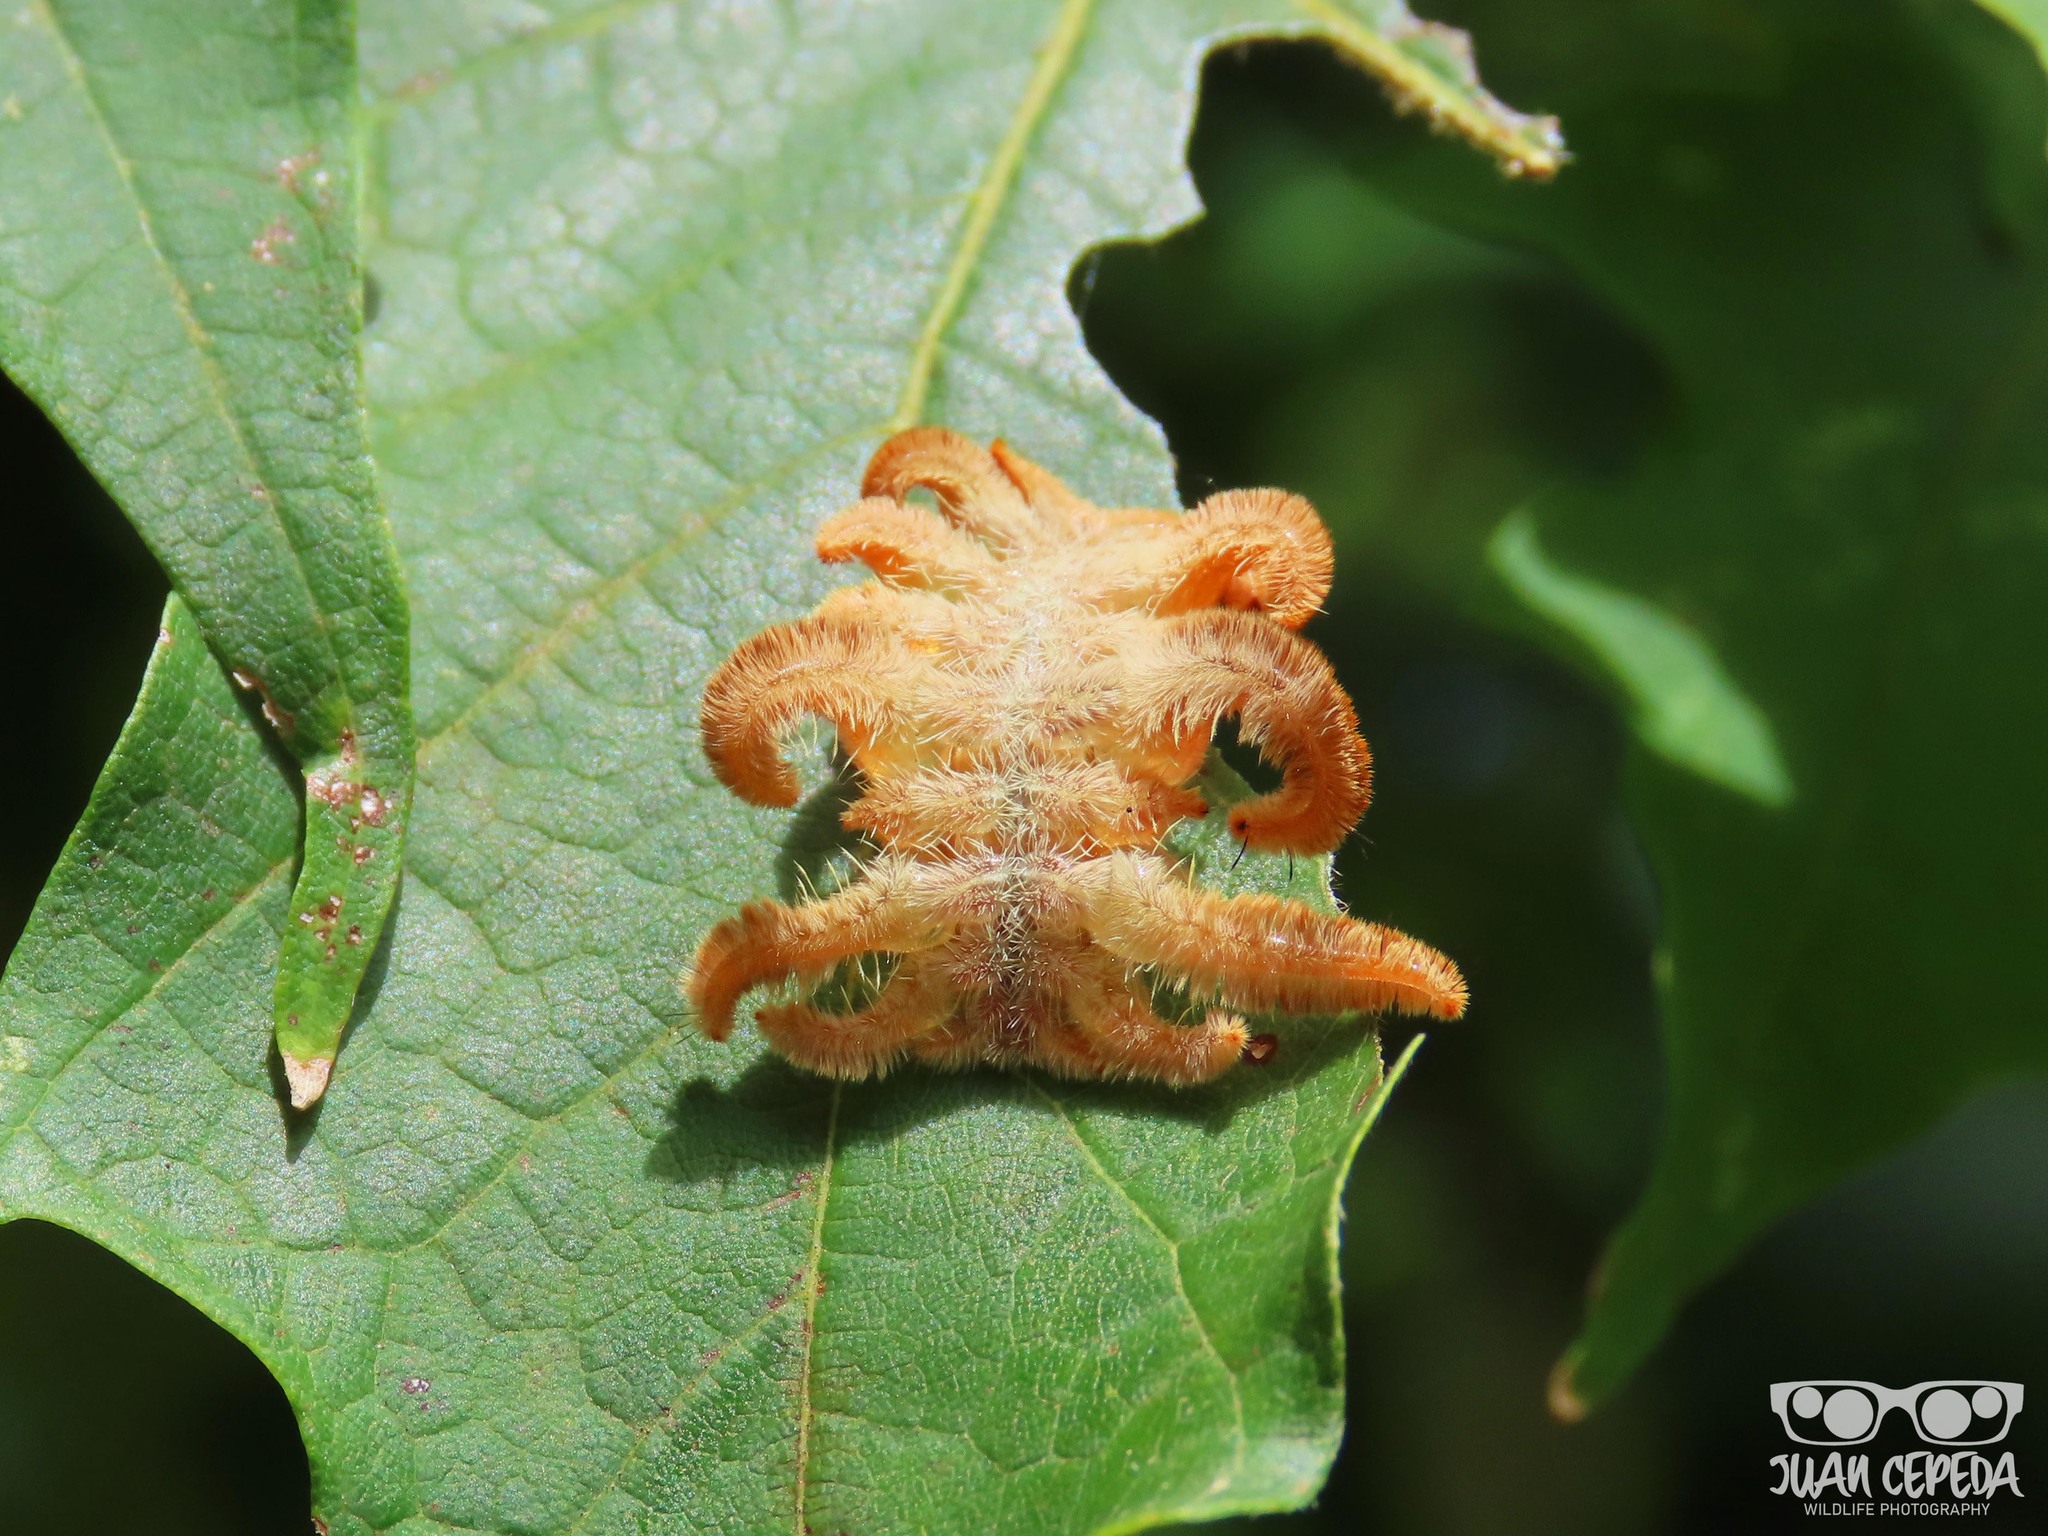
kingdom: Animalia
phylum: Arthropoda
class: Insecta
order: Lepidoptera
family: Limacodidae
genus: Phobetron
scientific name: Phobetron pithecium
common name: Hag moth
